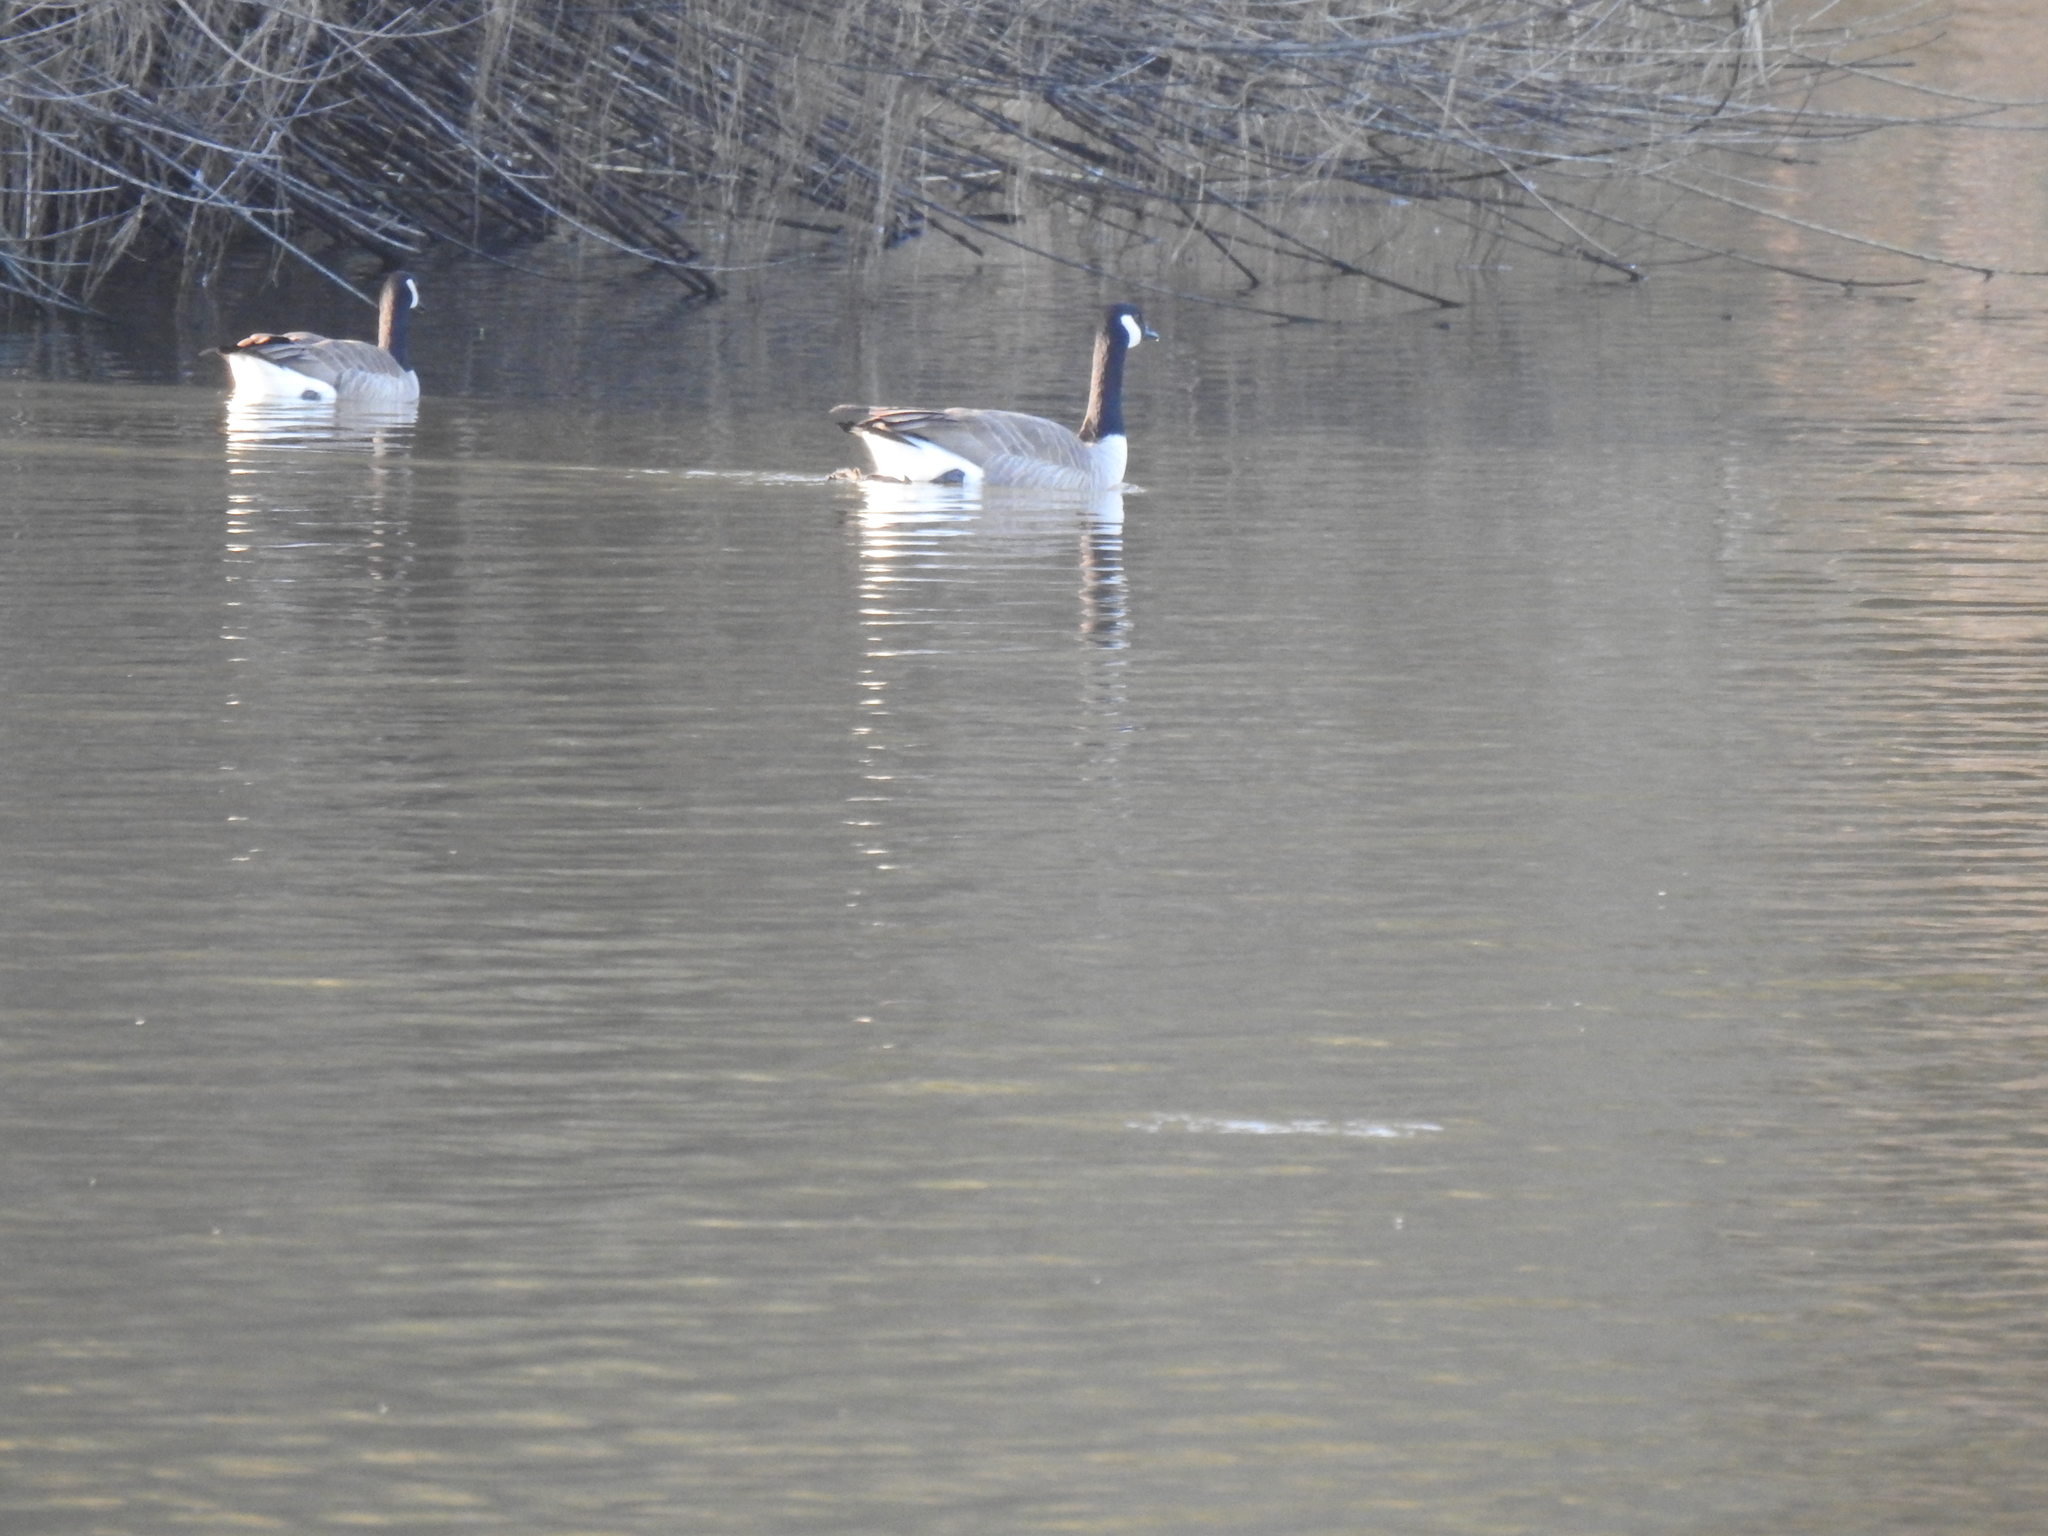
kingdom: Animalia
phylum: Chordata
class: Aves
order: Anseriformes
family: Anatidae
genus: Branta
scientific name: Branta canadensis
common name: Canada goose
